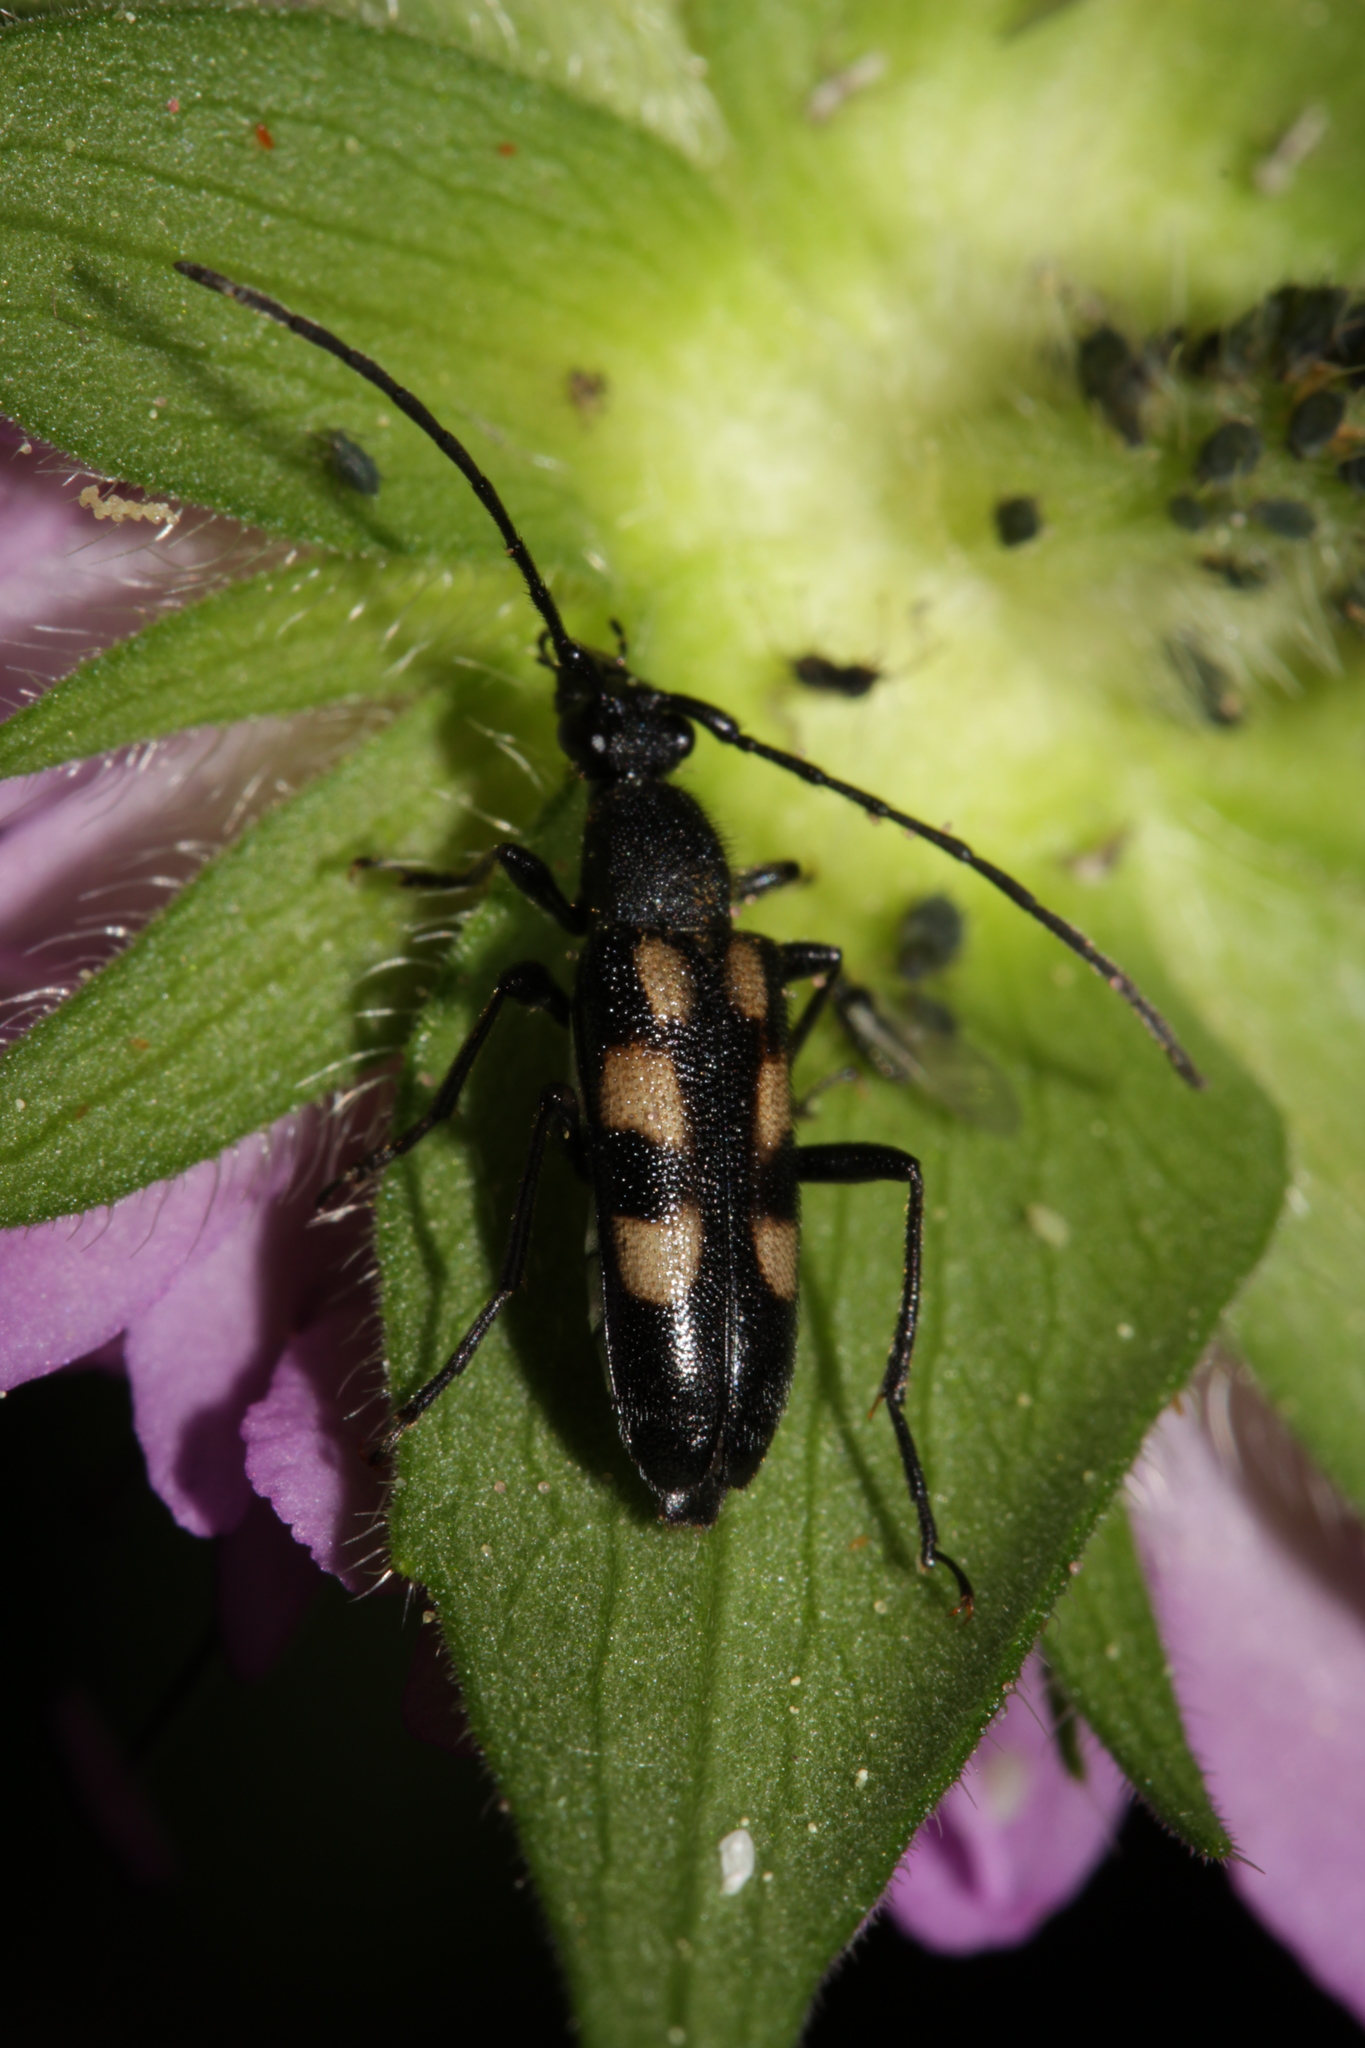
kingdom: Animalia
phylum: Arthropoda
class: Insecta
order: Coleoptera
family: Cerambycidae
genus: Anoplodera
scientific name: Anoplodera sexguttata
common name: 6 spotted longhorn
